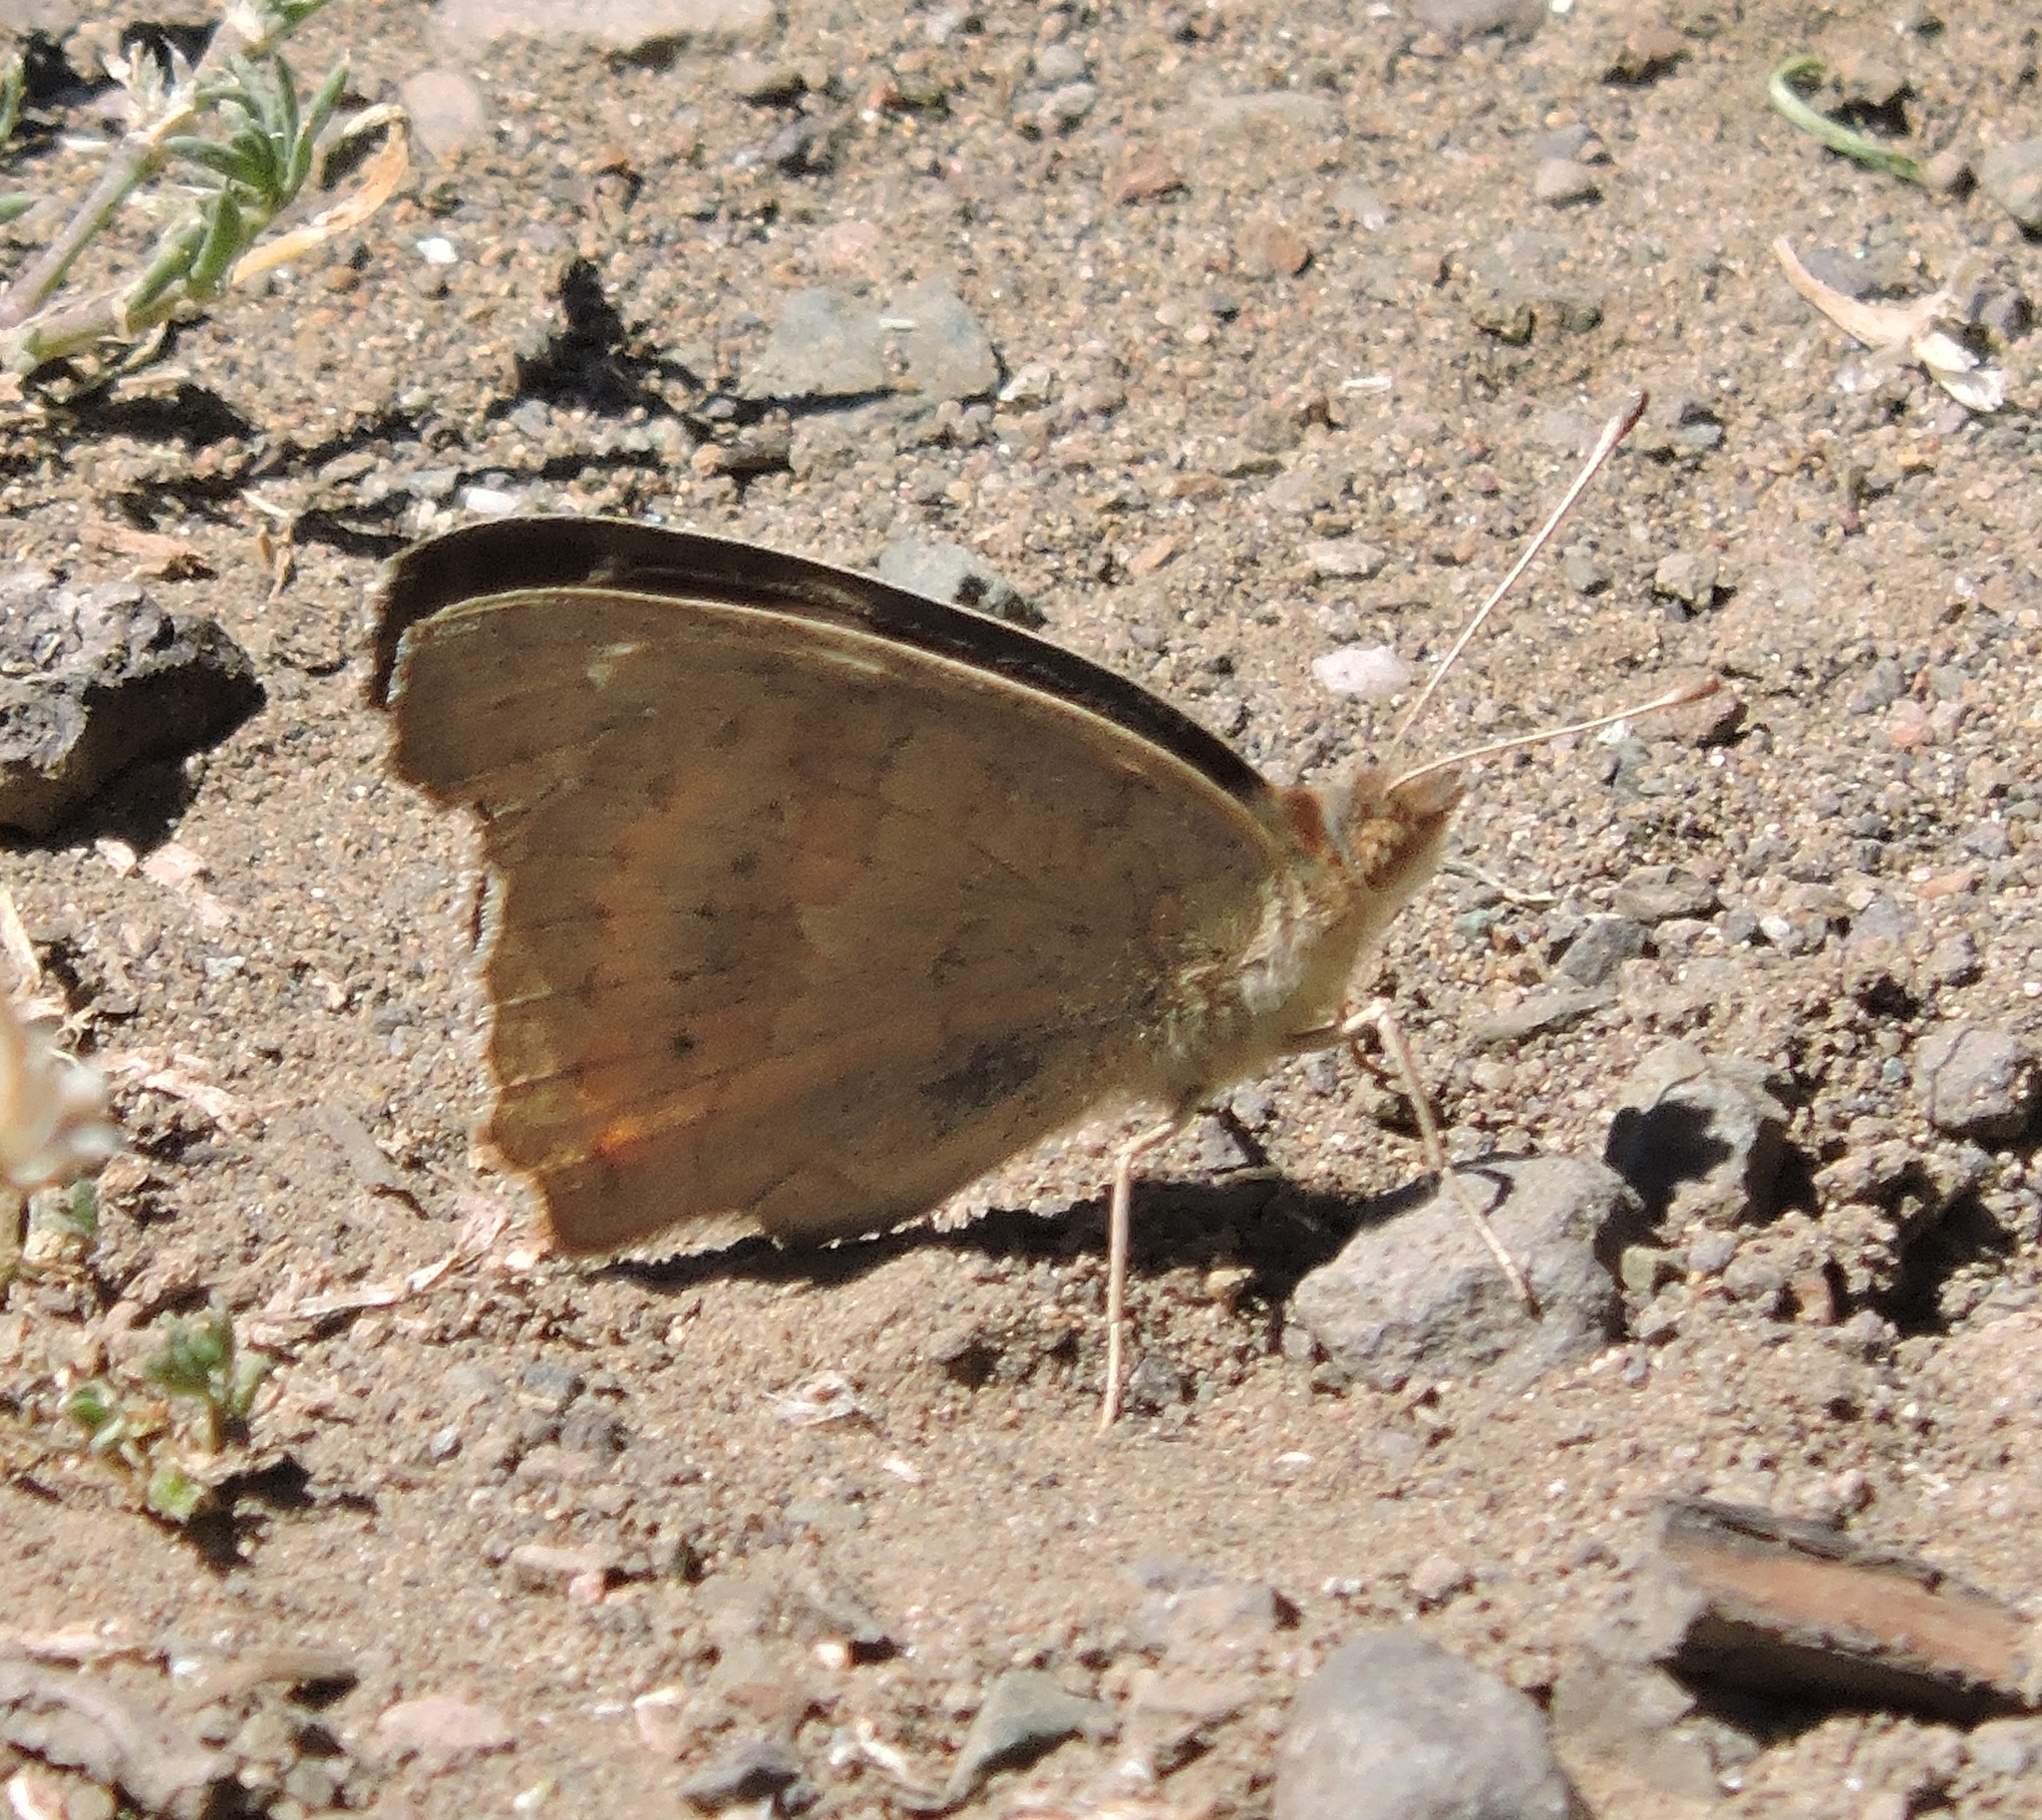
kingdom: Animalia
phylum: Arthropoda
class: Insecta
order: Lepidoptera
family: Nymphalidae
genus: Junonia
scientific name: Junonia grisea
